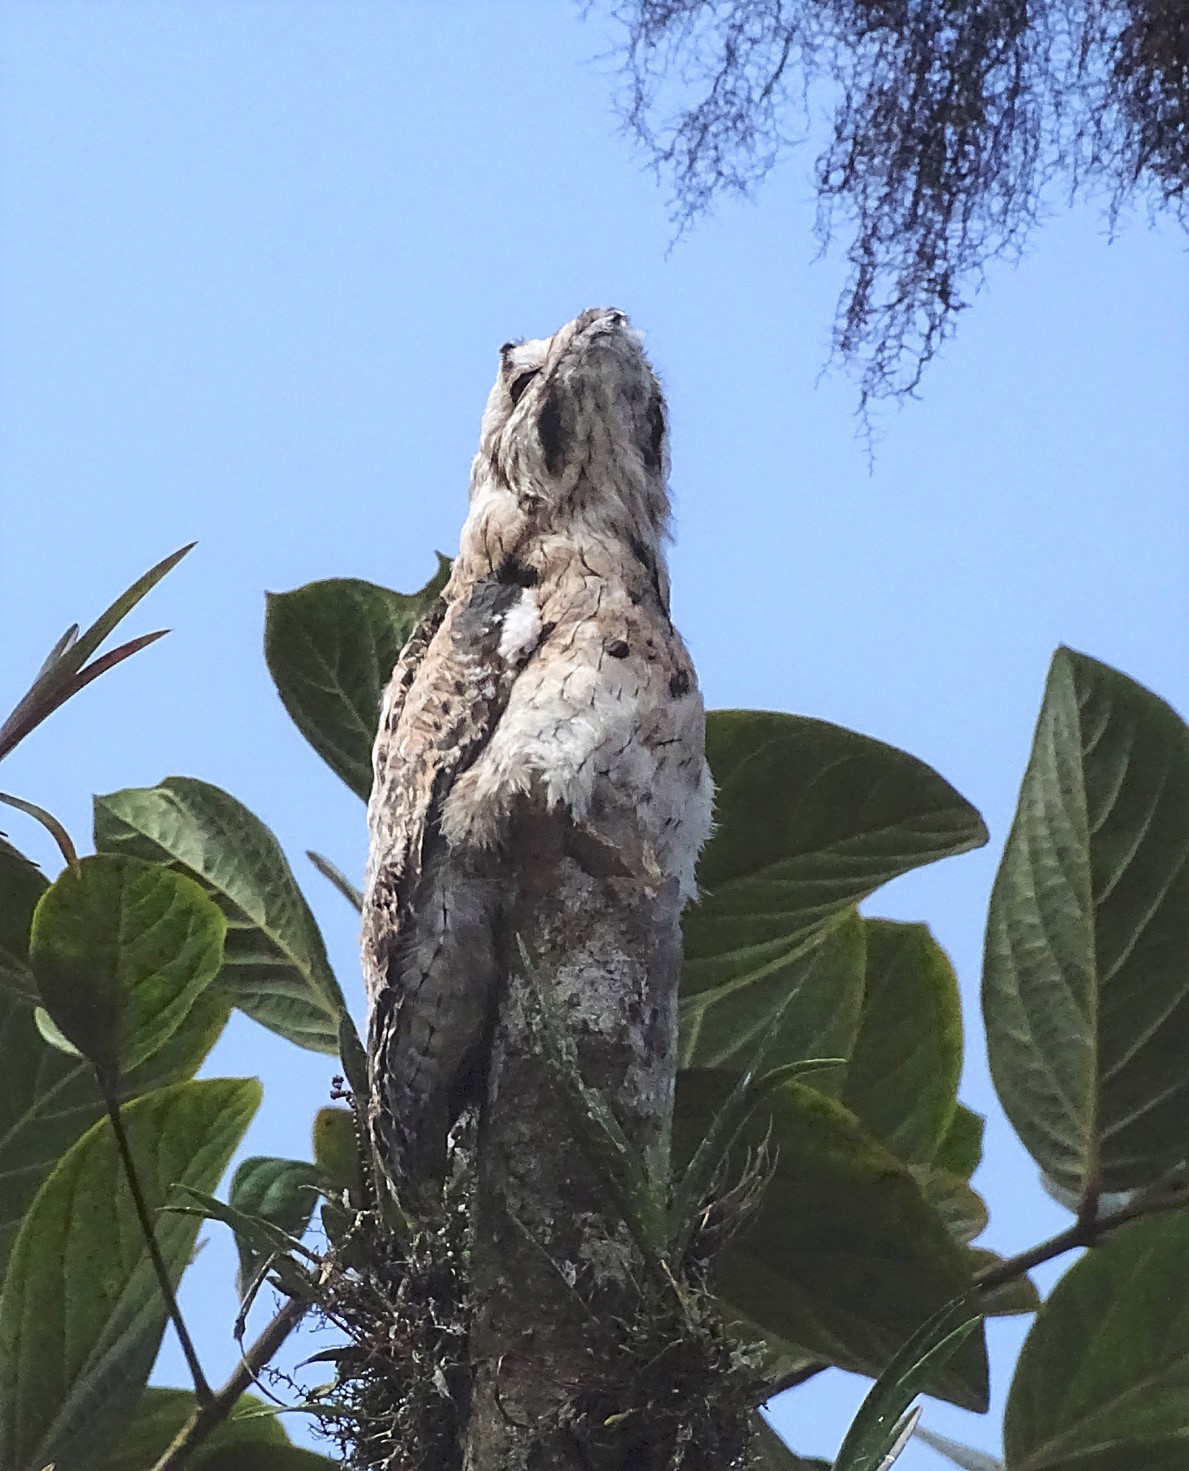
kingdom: Animalia
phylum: Chordata
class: Aves
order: Nyctibiiformes
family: Nyctibiidae
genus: Nyctibius
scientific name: Nyctibius griseus
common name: Common potoo
